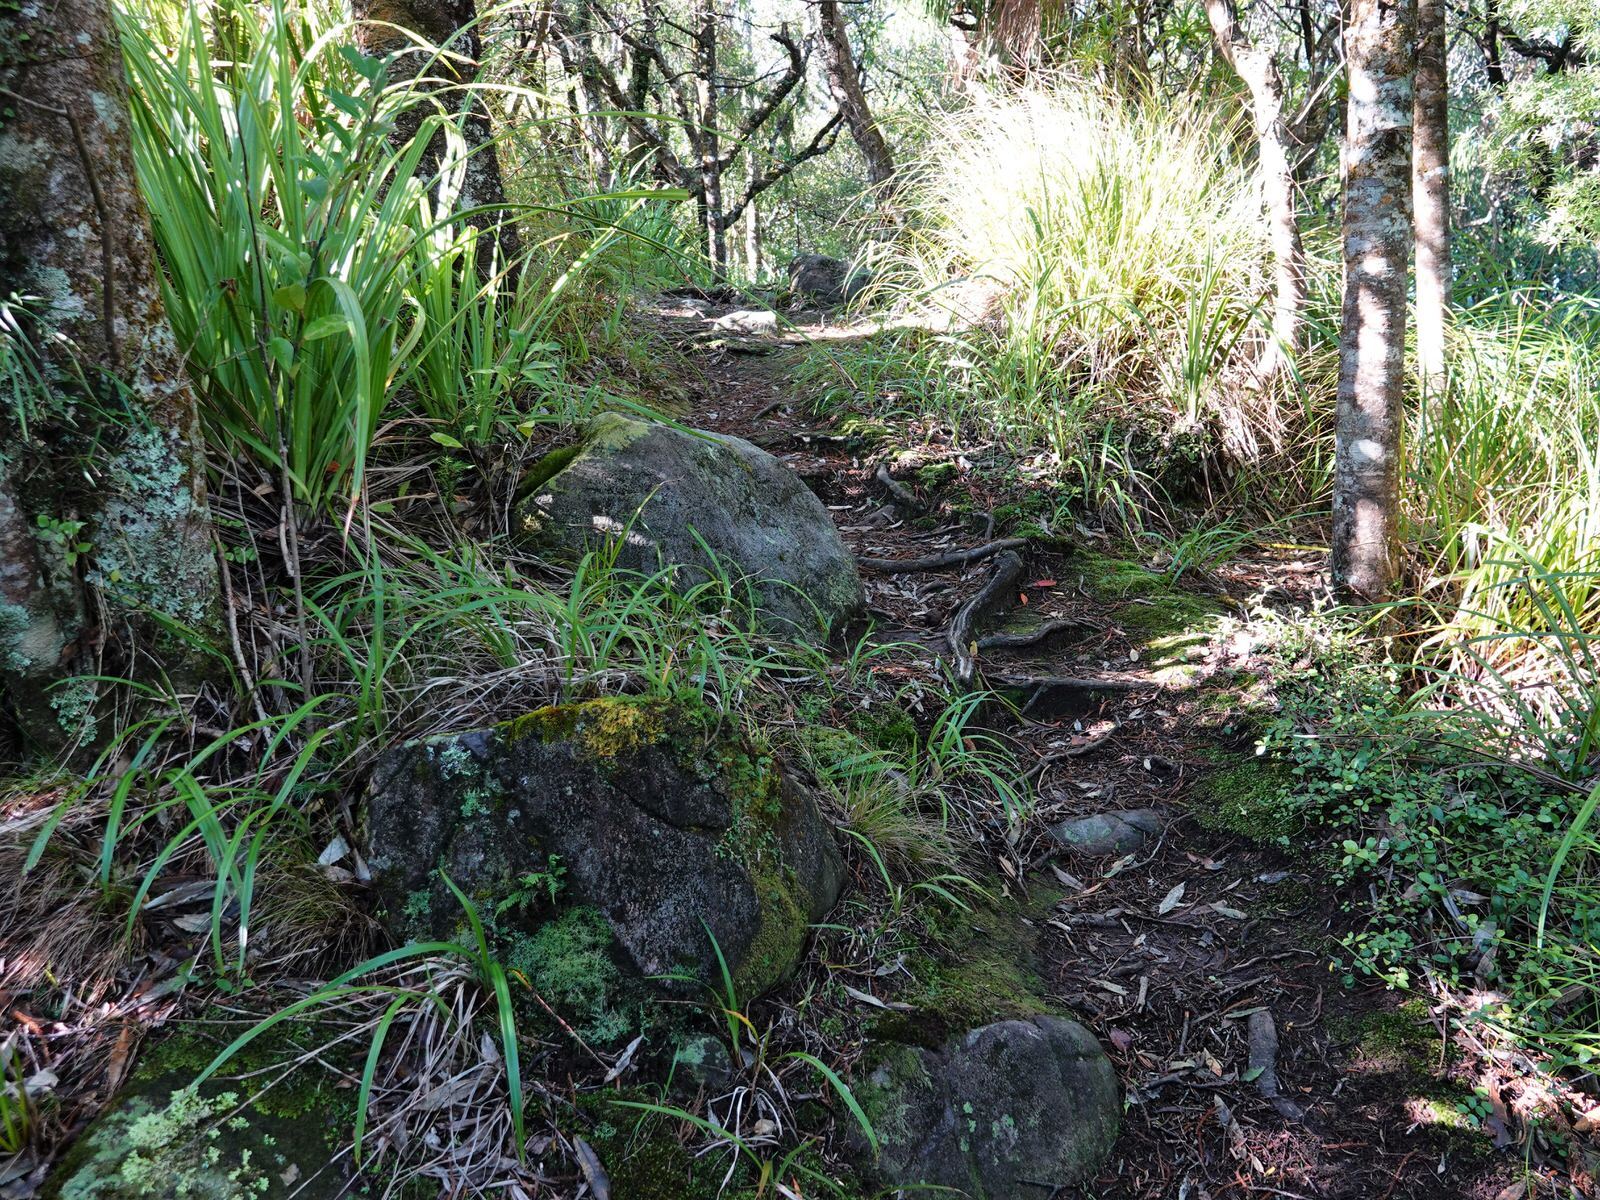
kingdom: Plantae
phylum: Tracheophyta
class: Polypodiopsida
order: Polypodiales
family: Polypodiaceae
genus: Notogrammitis
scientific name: Notogrammitis heterophylla
